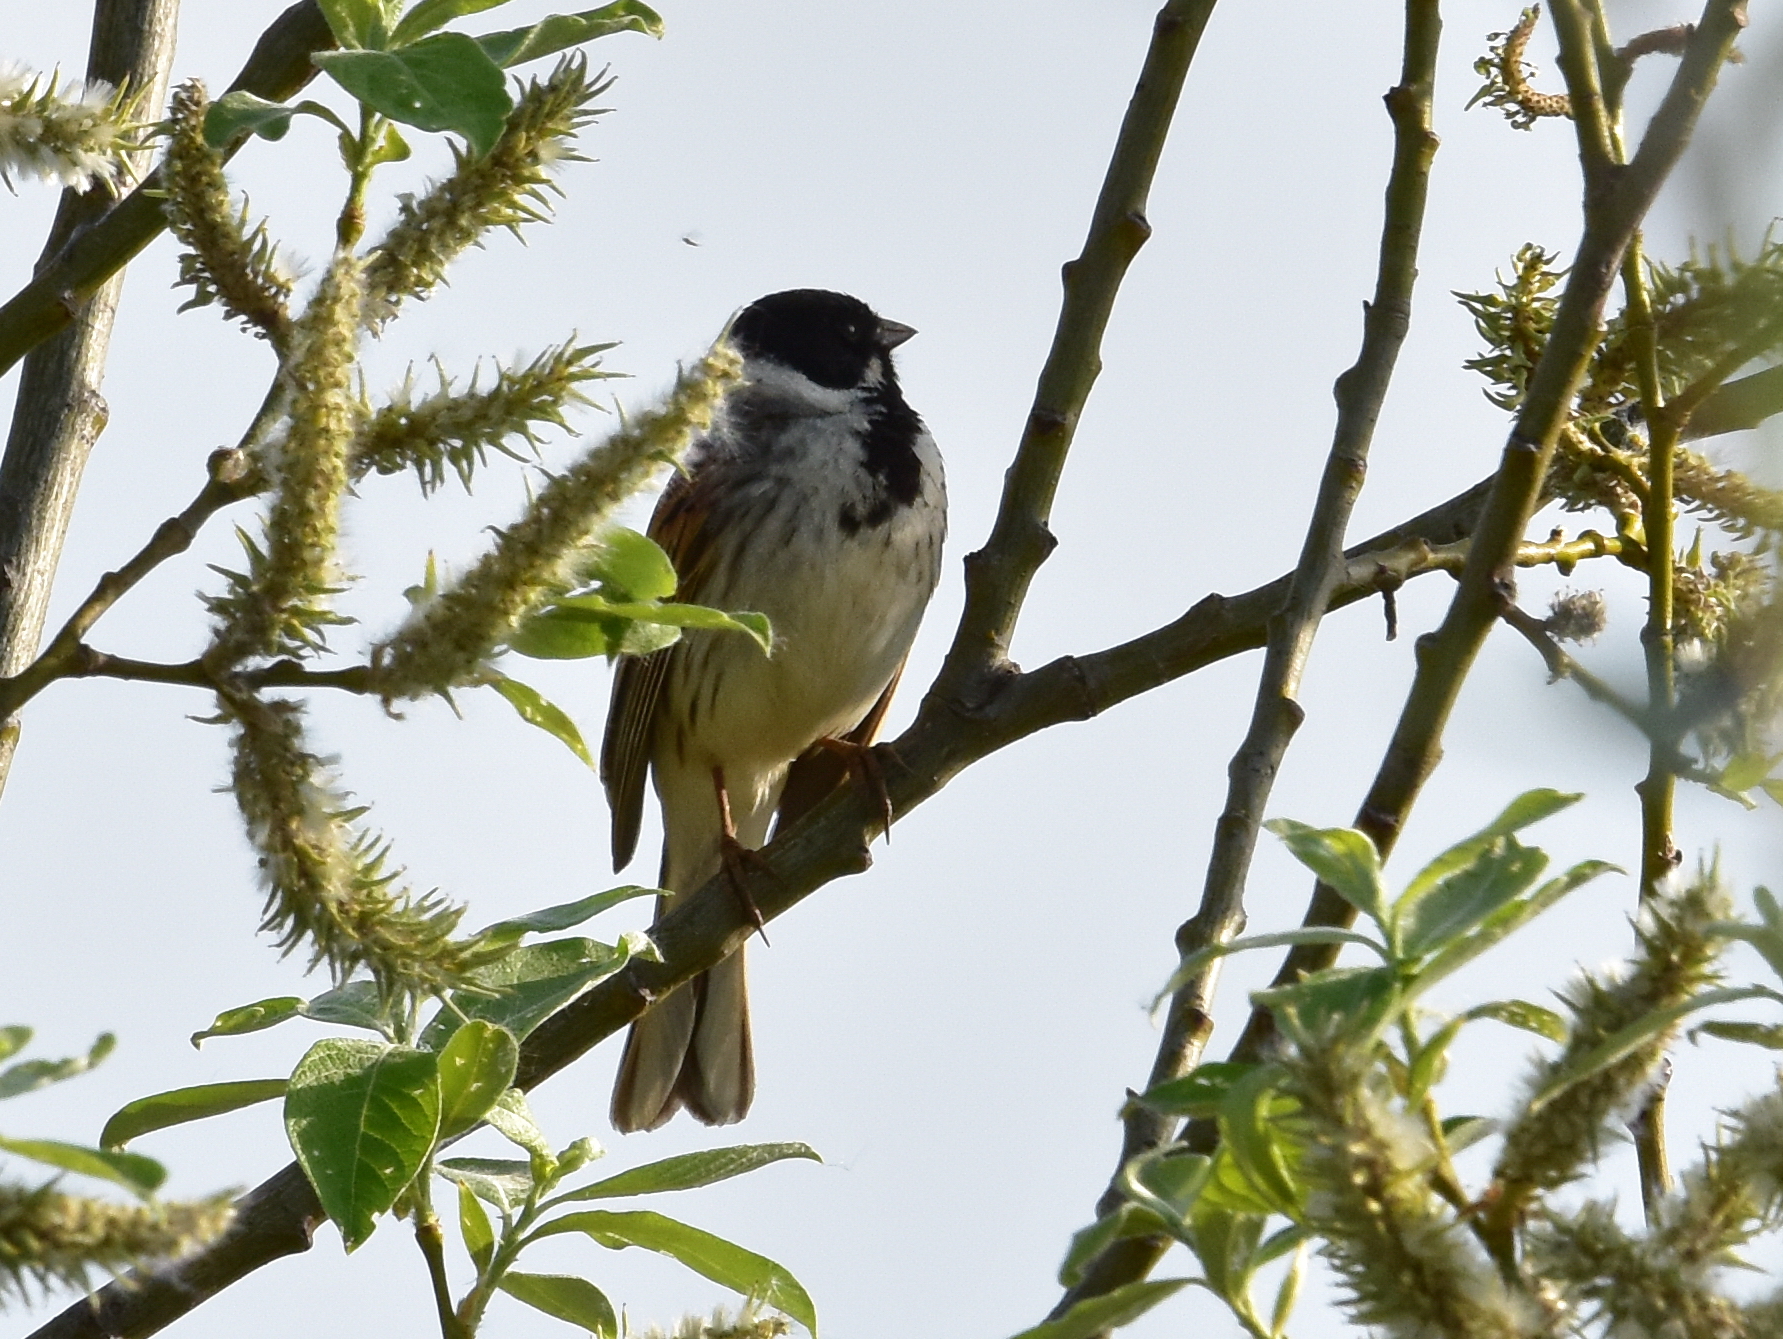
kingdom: Animalia
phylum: Chordata
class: Aves
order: Passeriformes
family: Emberizidae
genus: Emberiza
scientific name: Emberiza schoeniclus
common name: Reed bunting
